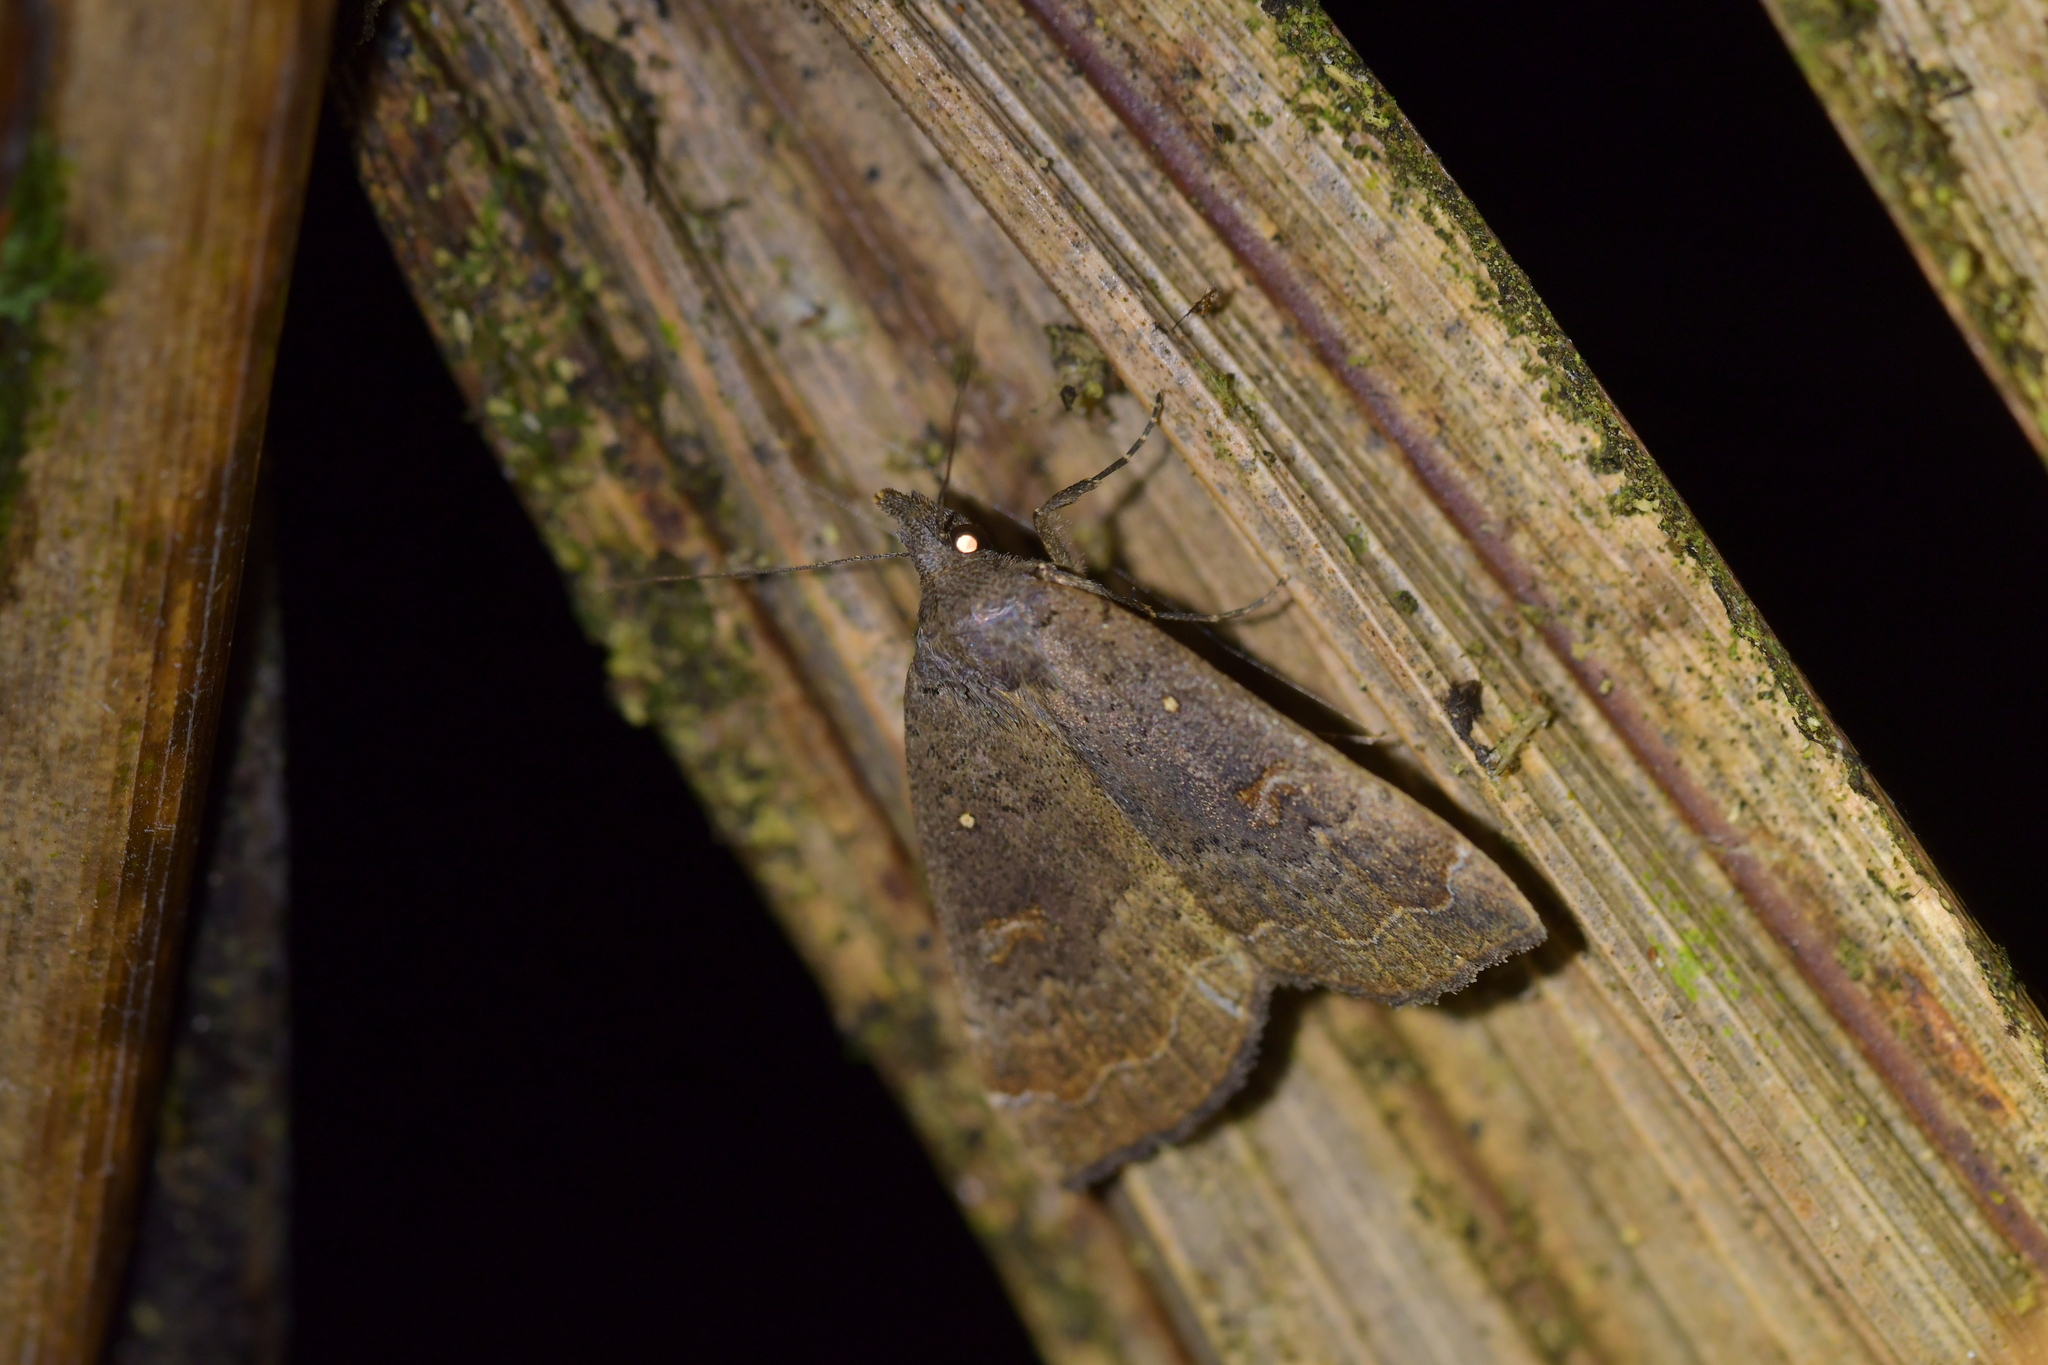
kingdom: Animalia
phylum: Arthropoda
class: Insecta
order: Lepidoptera
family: Erebidae
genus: Rhapsa
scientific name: Rhapsa scotosialis
